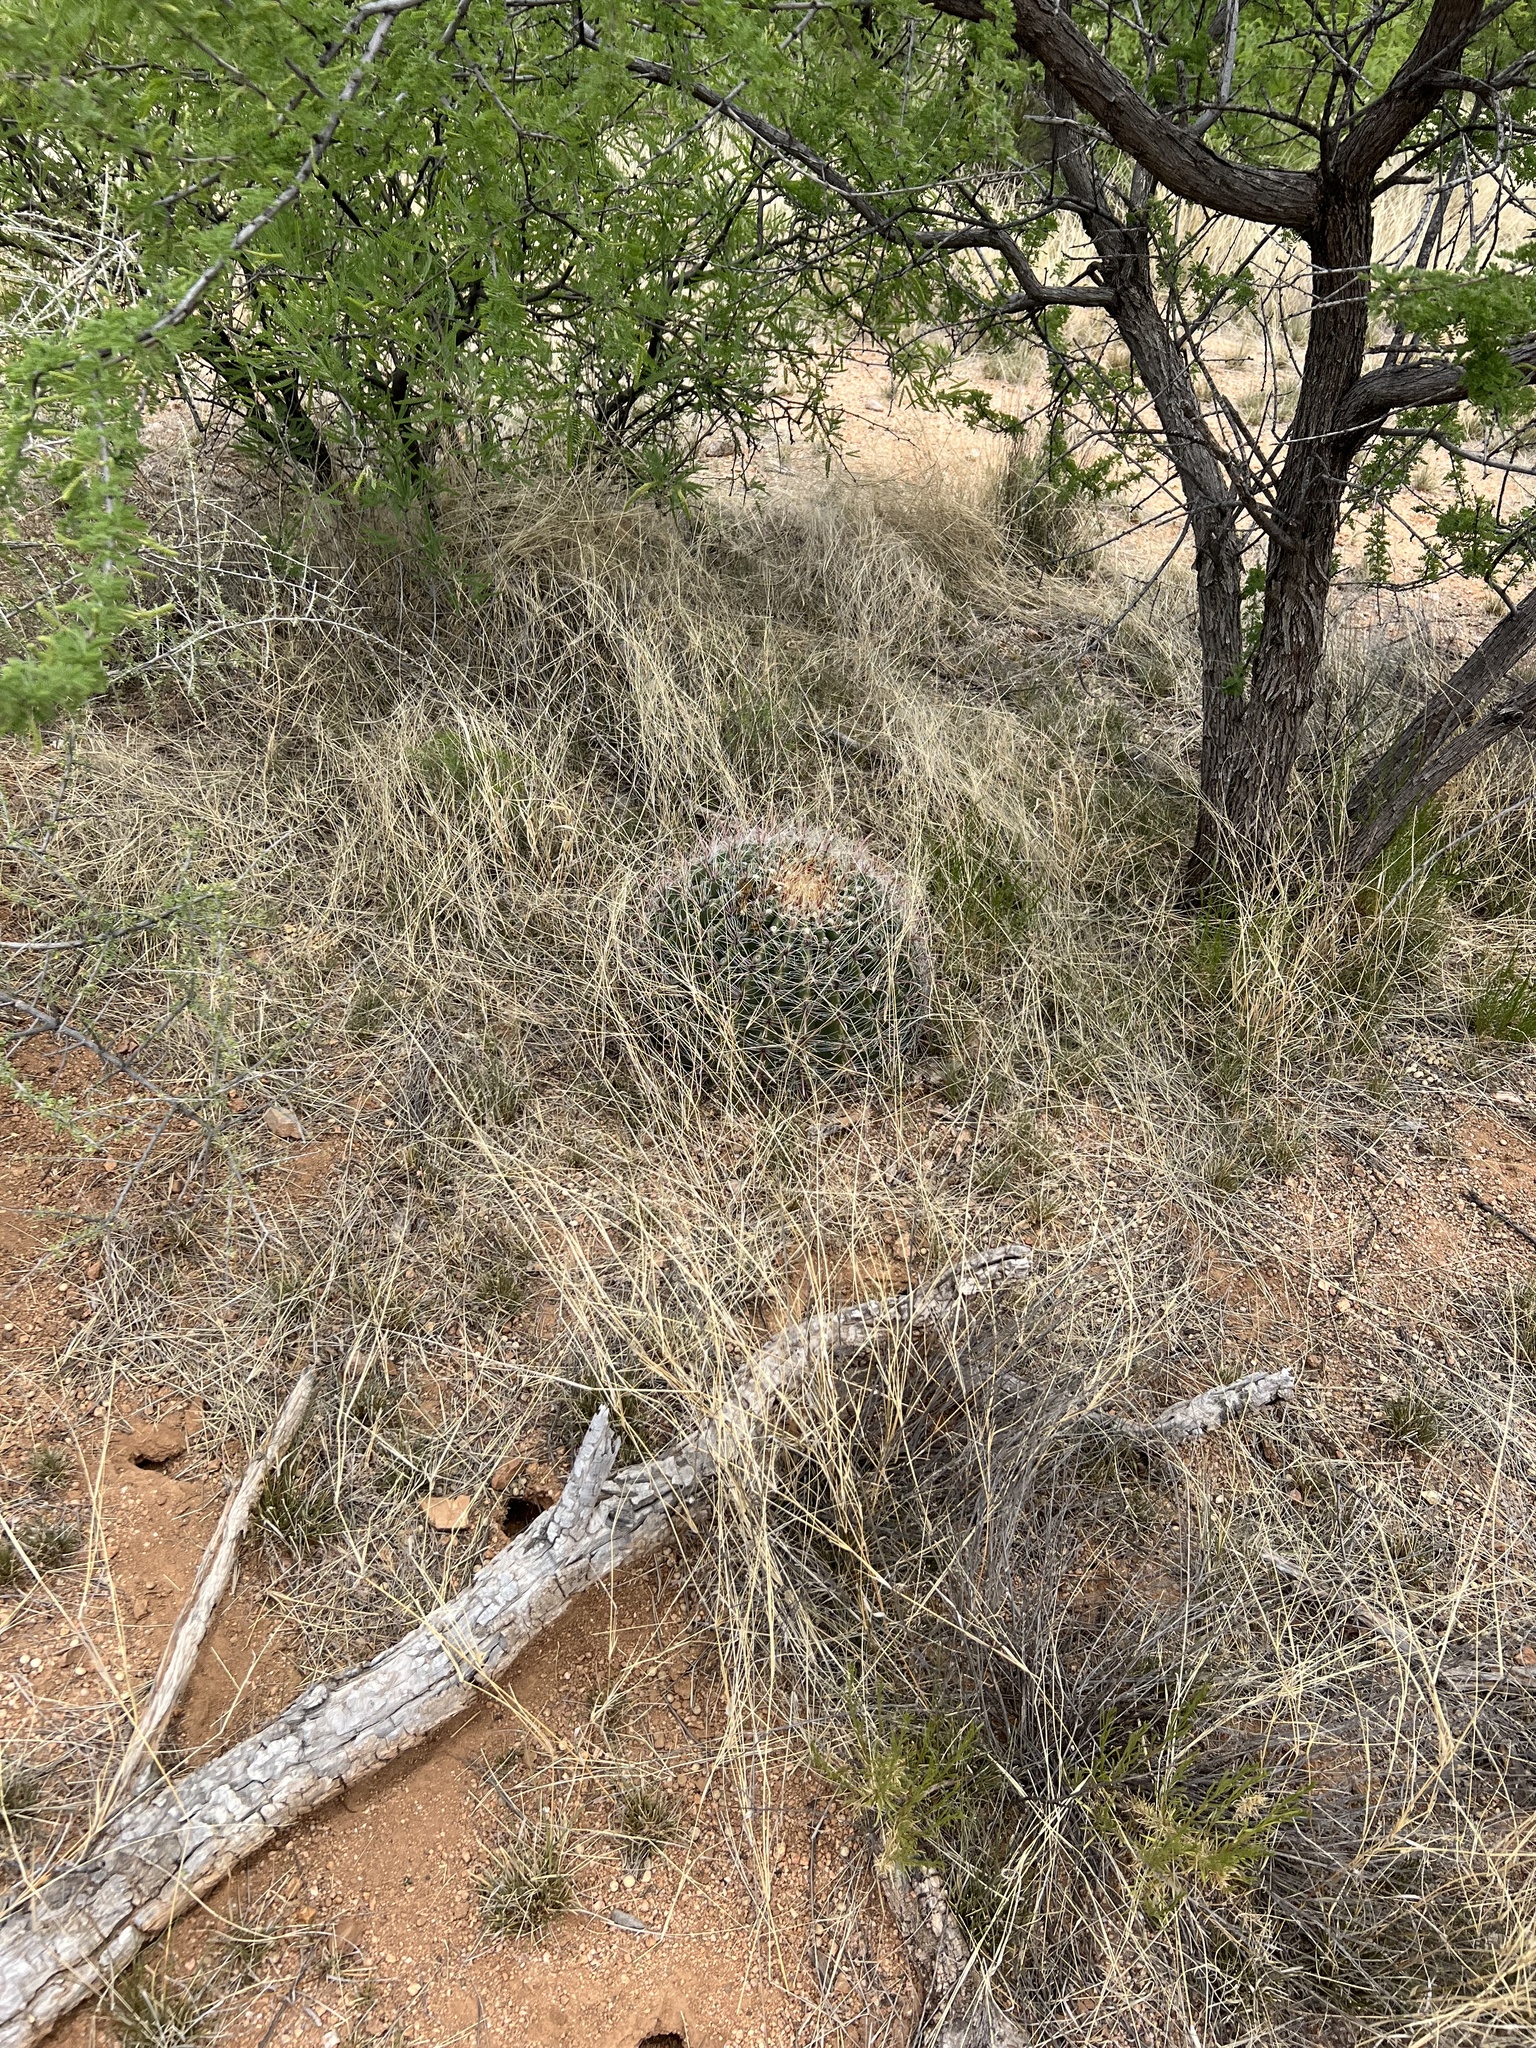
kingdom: Plantae
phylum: Tracheophyta
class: Magnoliopsida
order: Caryophyllales
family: Cactaceae
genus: Ferocactus
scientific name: Ferocactus wislizeni
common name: Candy barrel cactus
